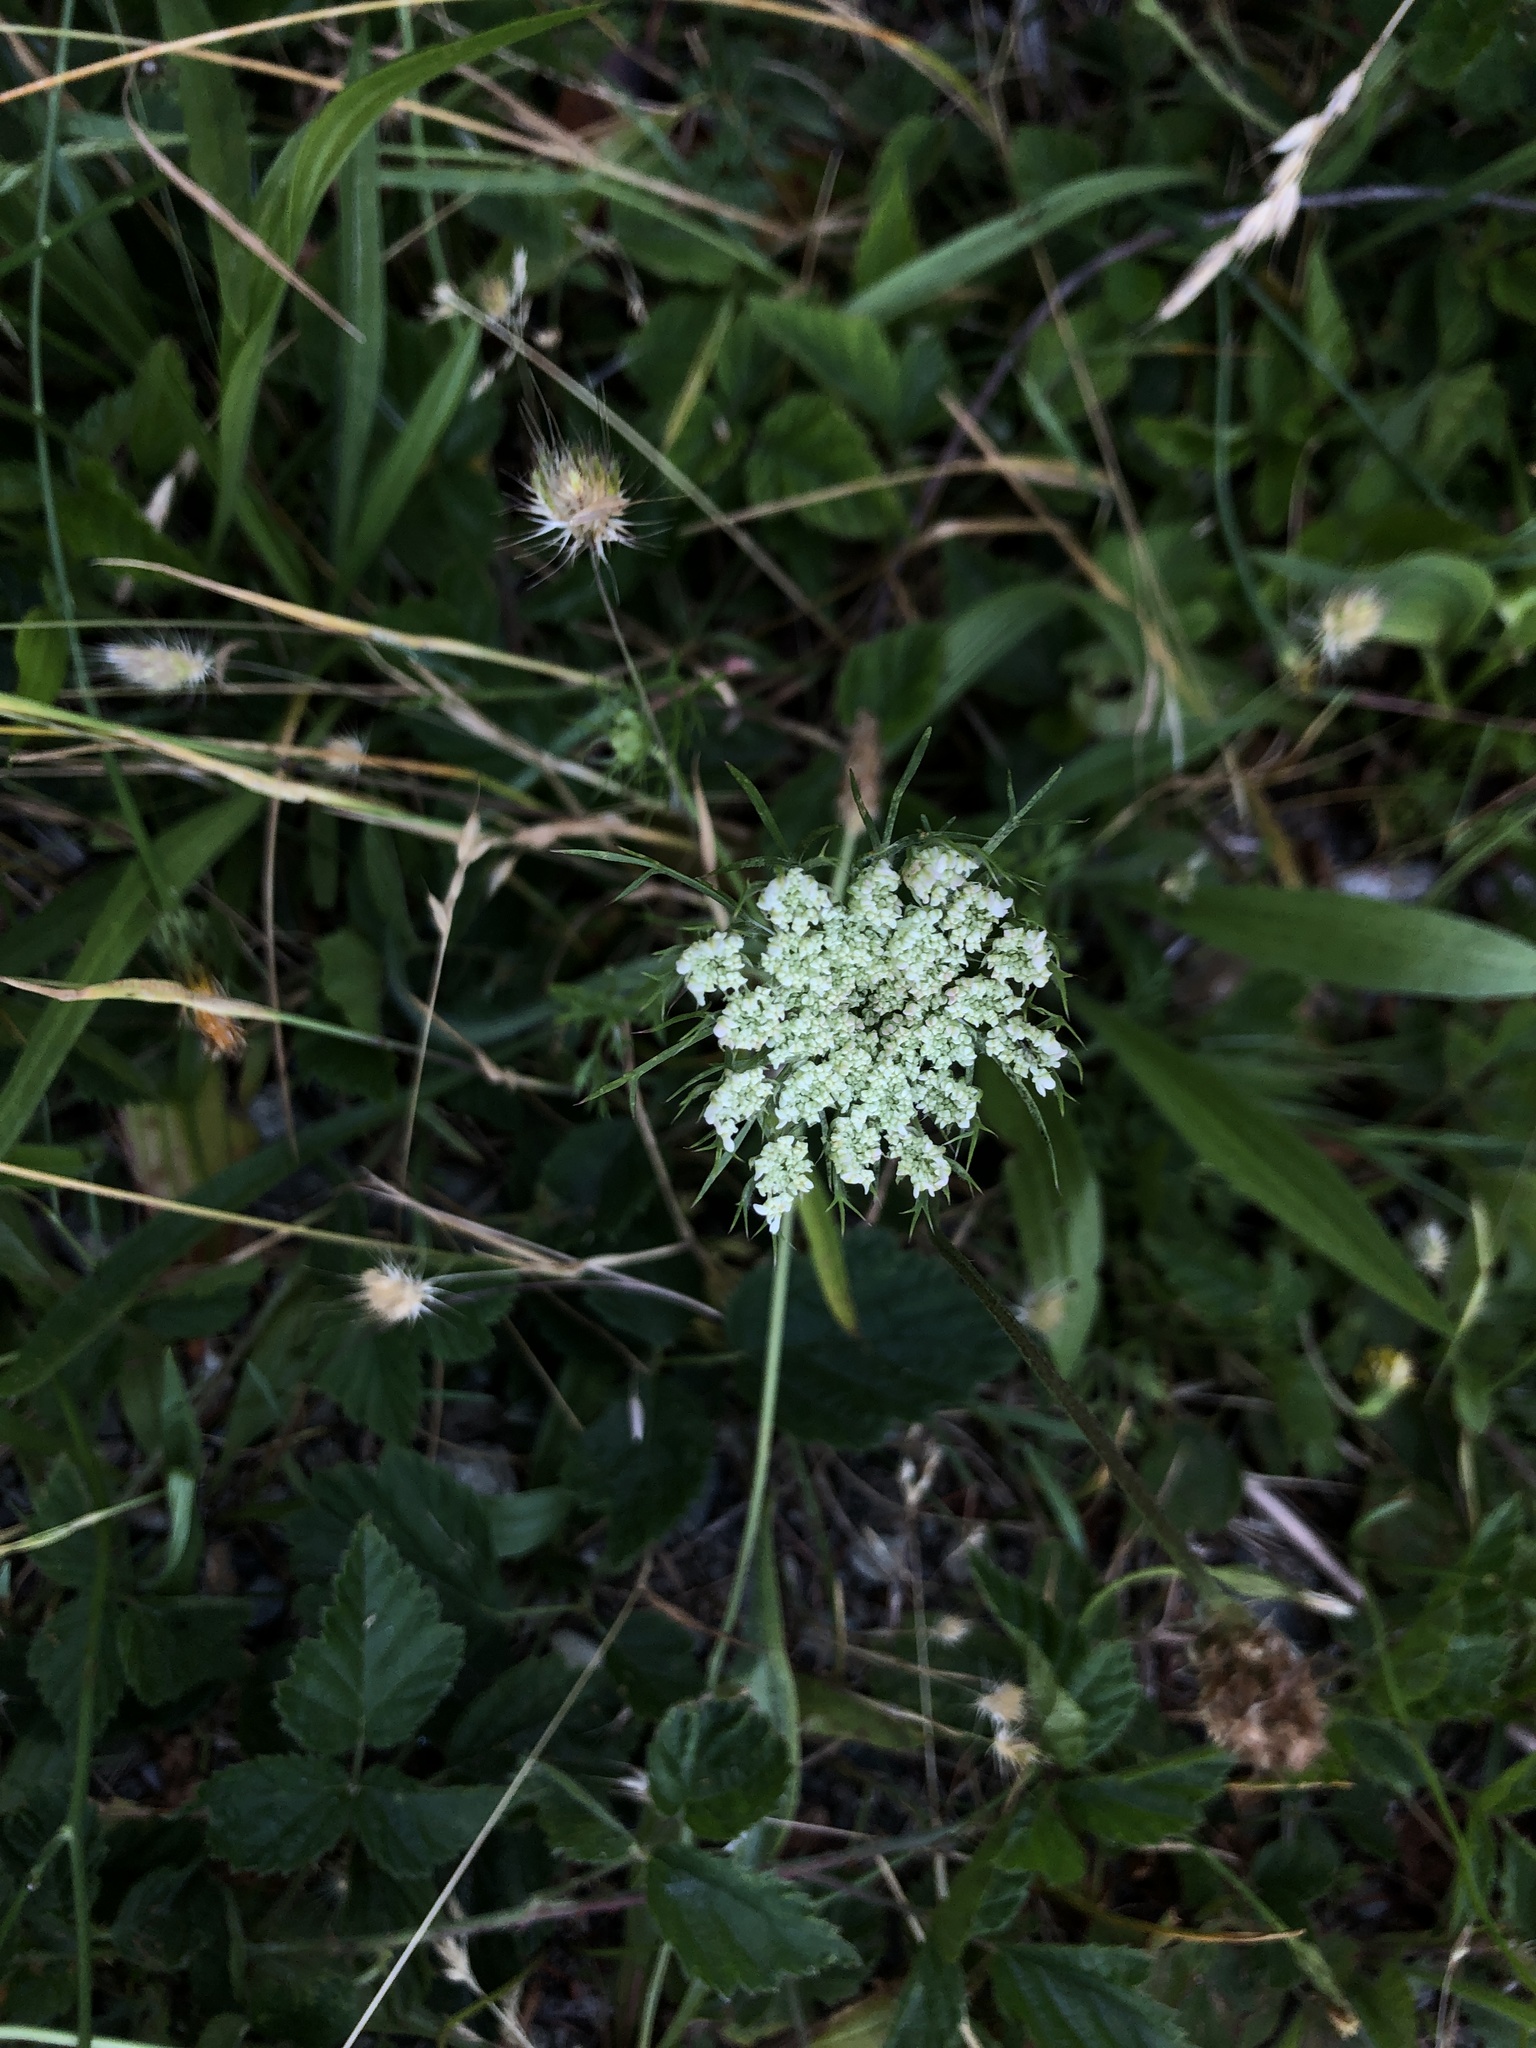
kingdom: Plantae
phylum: Tracheophyta
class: Magnoliopsida
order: Apiales
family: Apiaceae
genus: Daucus
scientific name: Daucus carota
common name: Wild carrot
